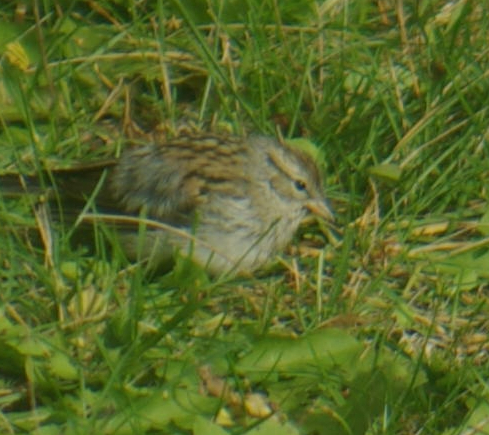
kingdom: Animalia
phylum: Chordata
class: Aves
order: Passeriformes
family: Passerellidae
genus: Spizella
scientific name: Spizella passerina
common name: Chipping sparrow
